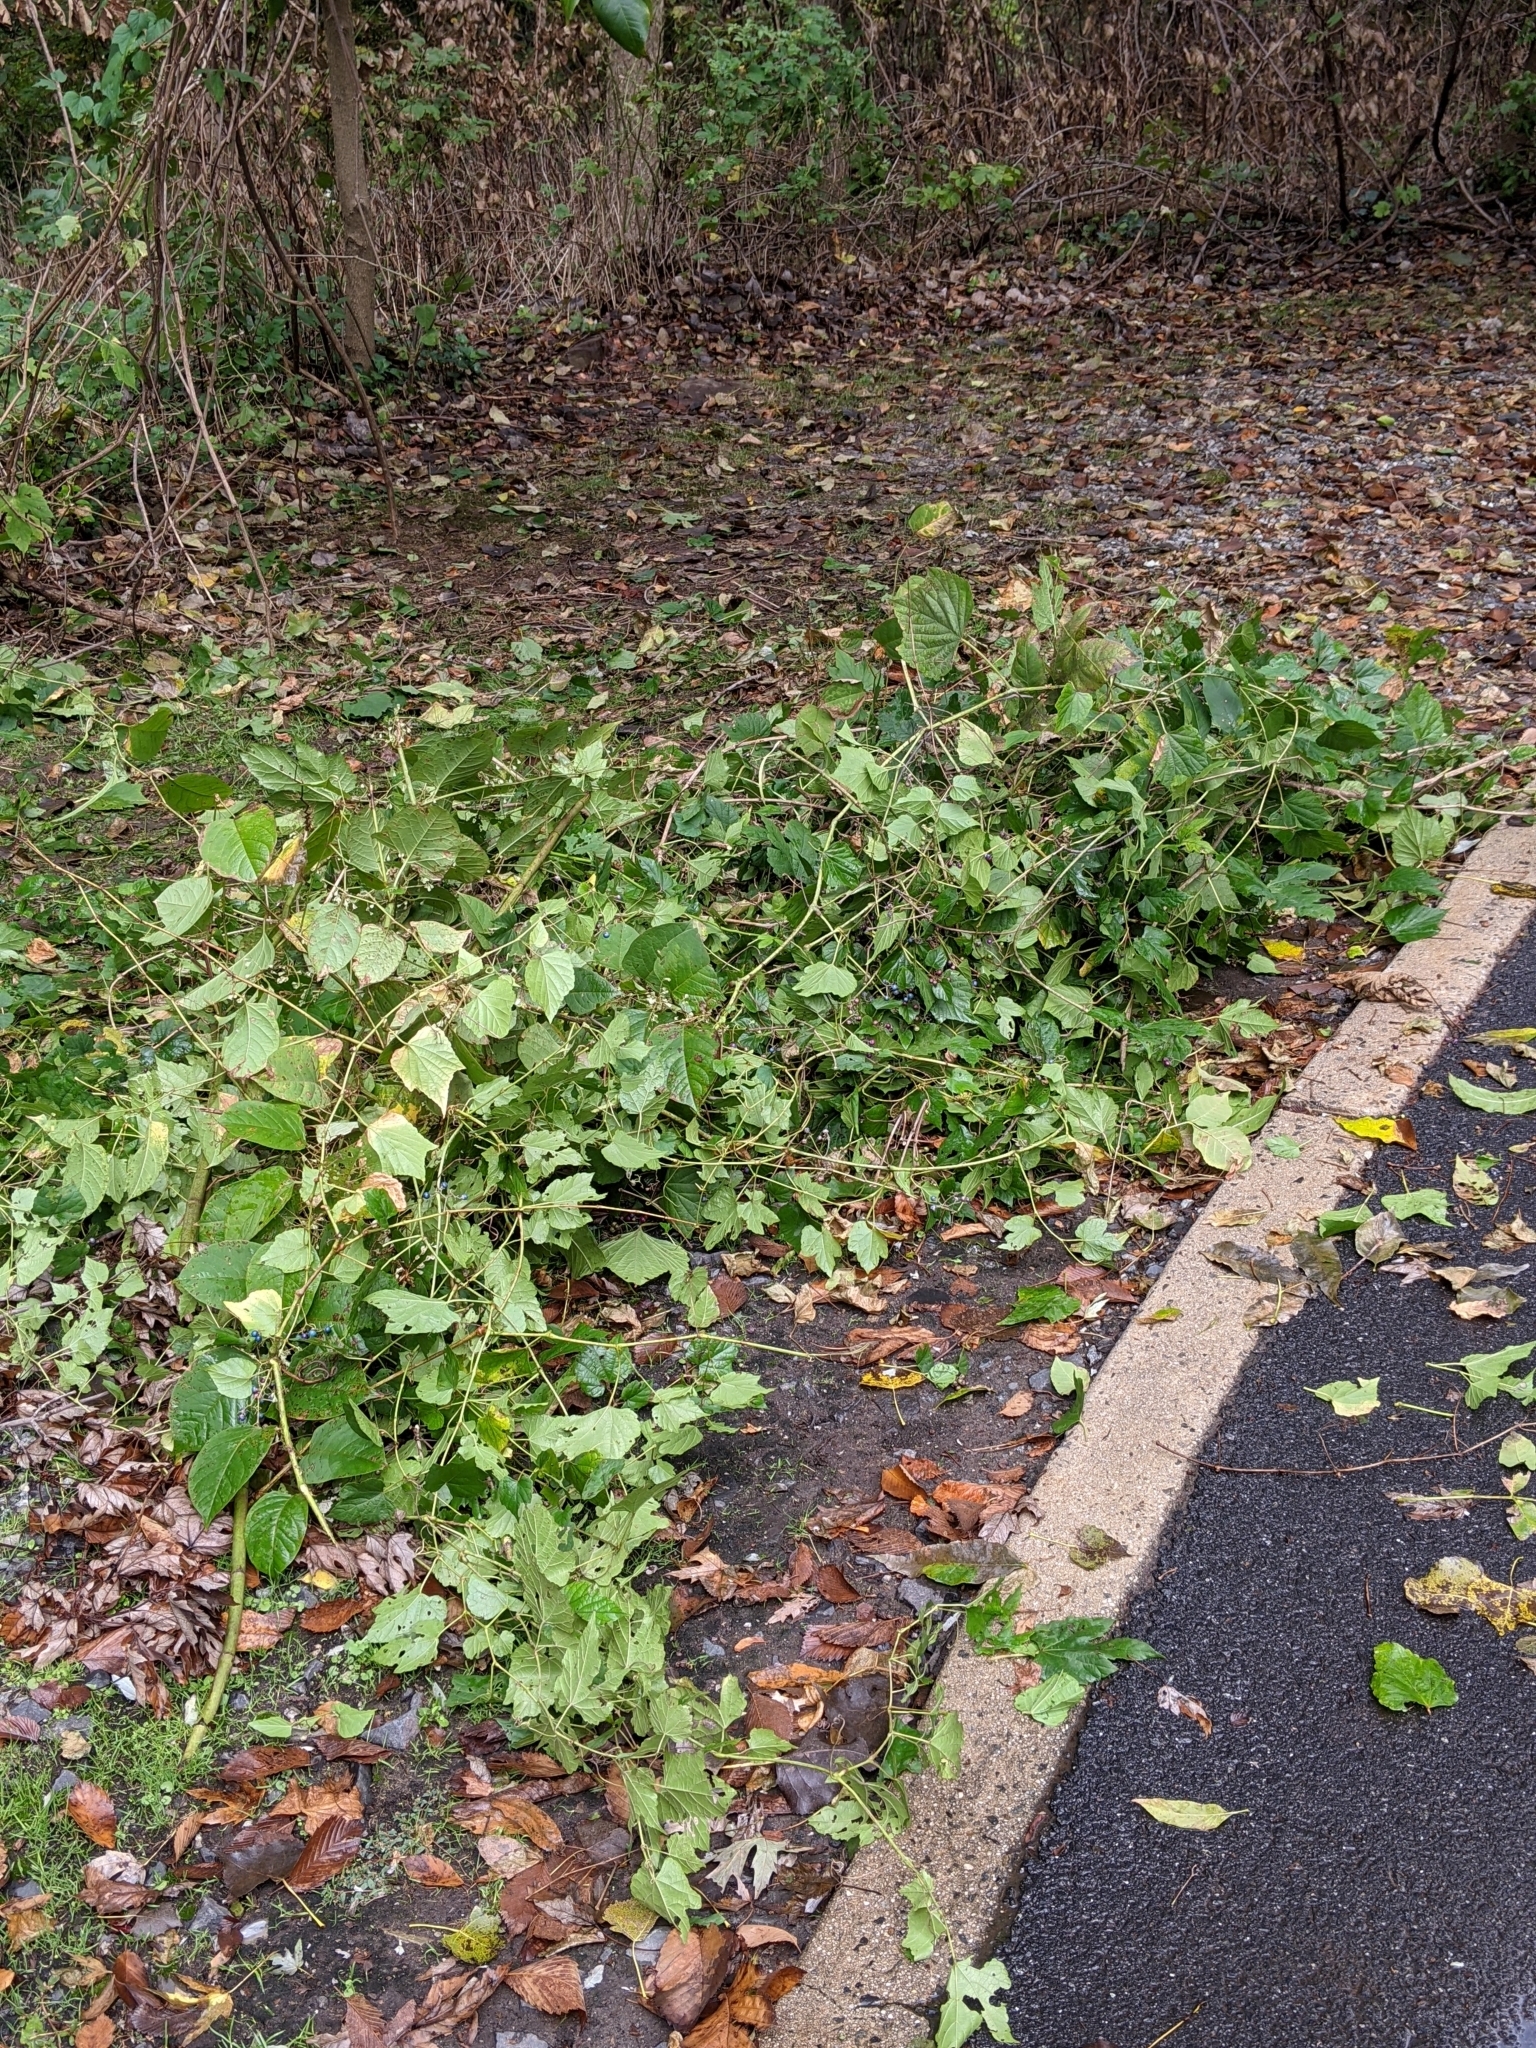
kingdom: Plantae
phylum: Tracheophyta
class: Magnoliopsida
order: Vitales
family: Vitaceae
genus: Ampelopsis
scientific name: Ampelopsis glandulosa
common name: Amur peppervine
